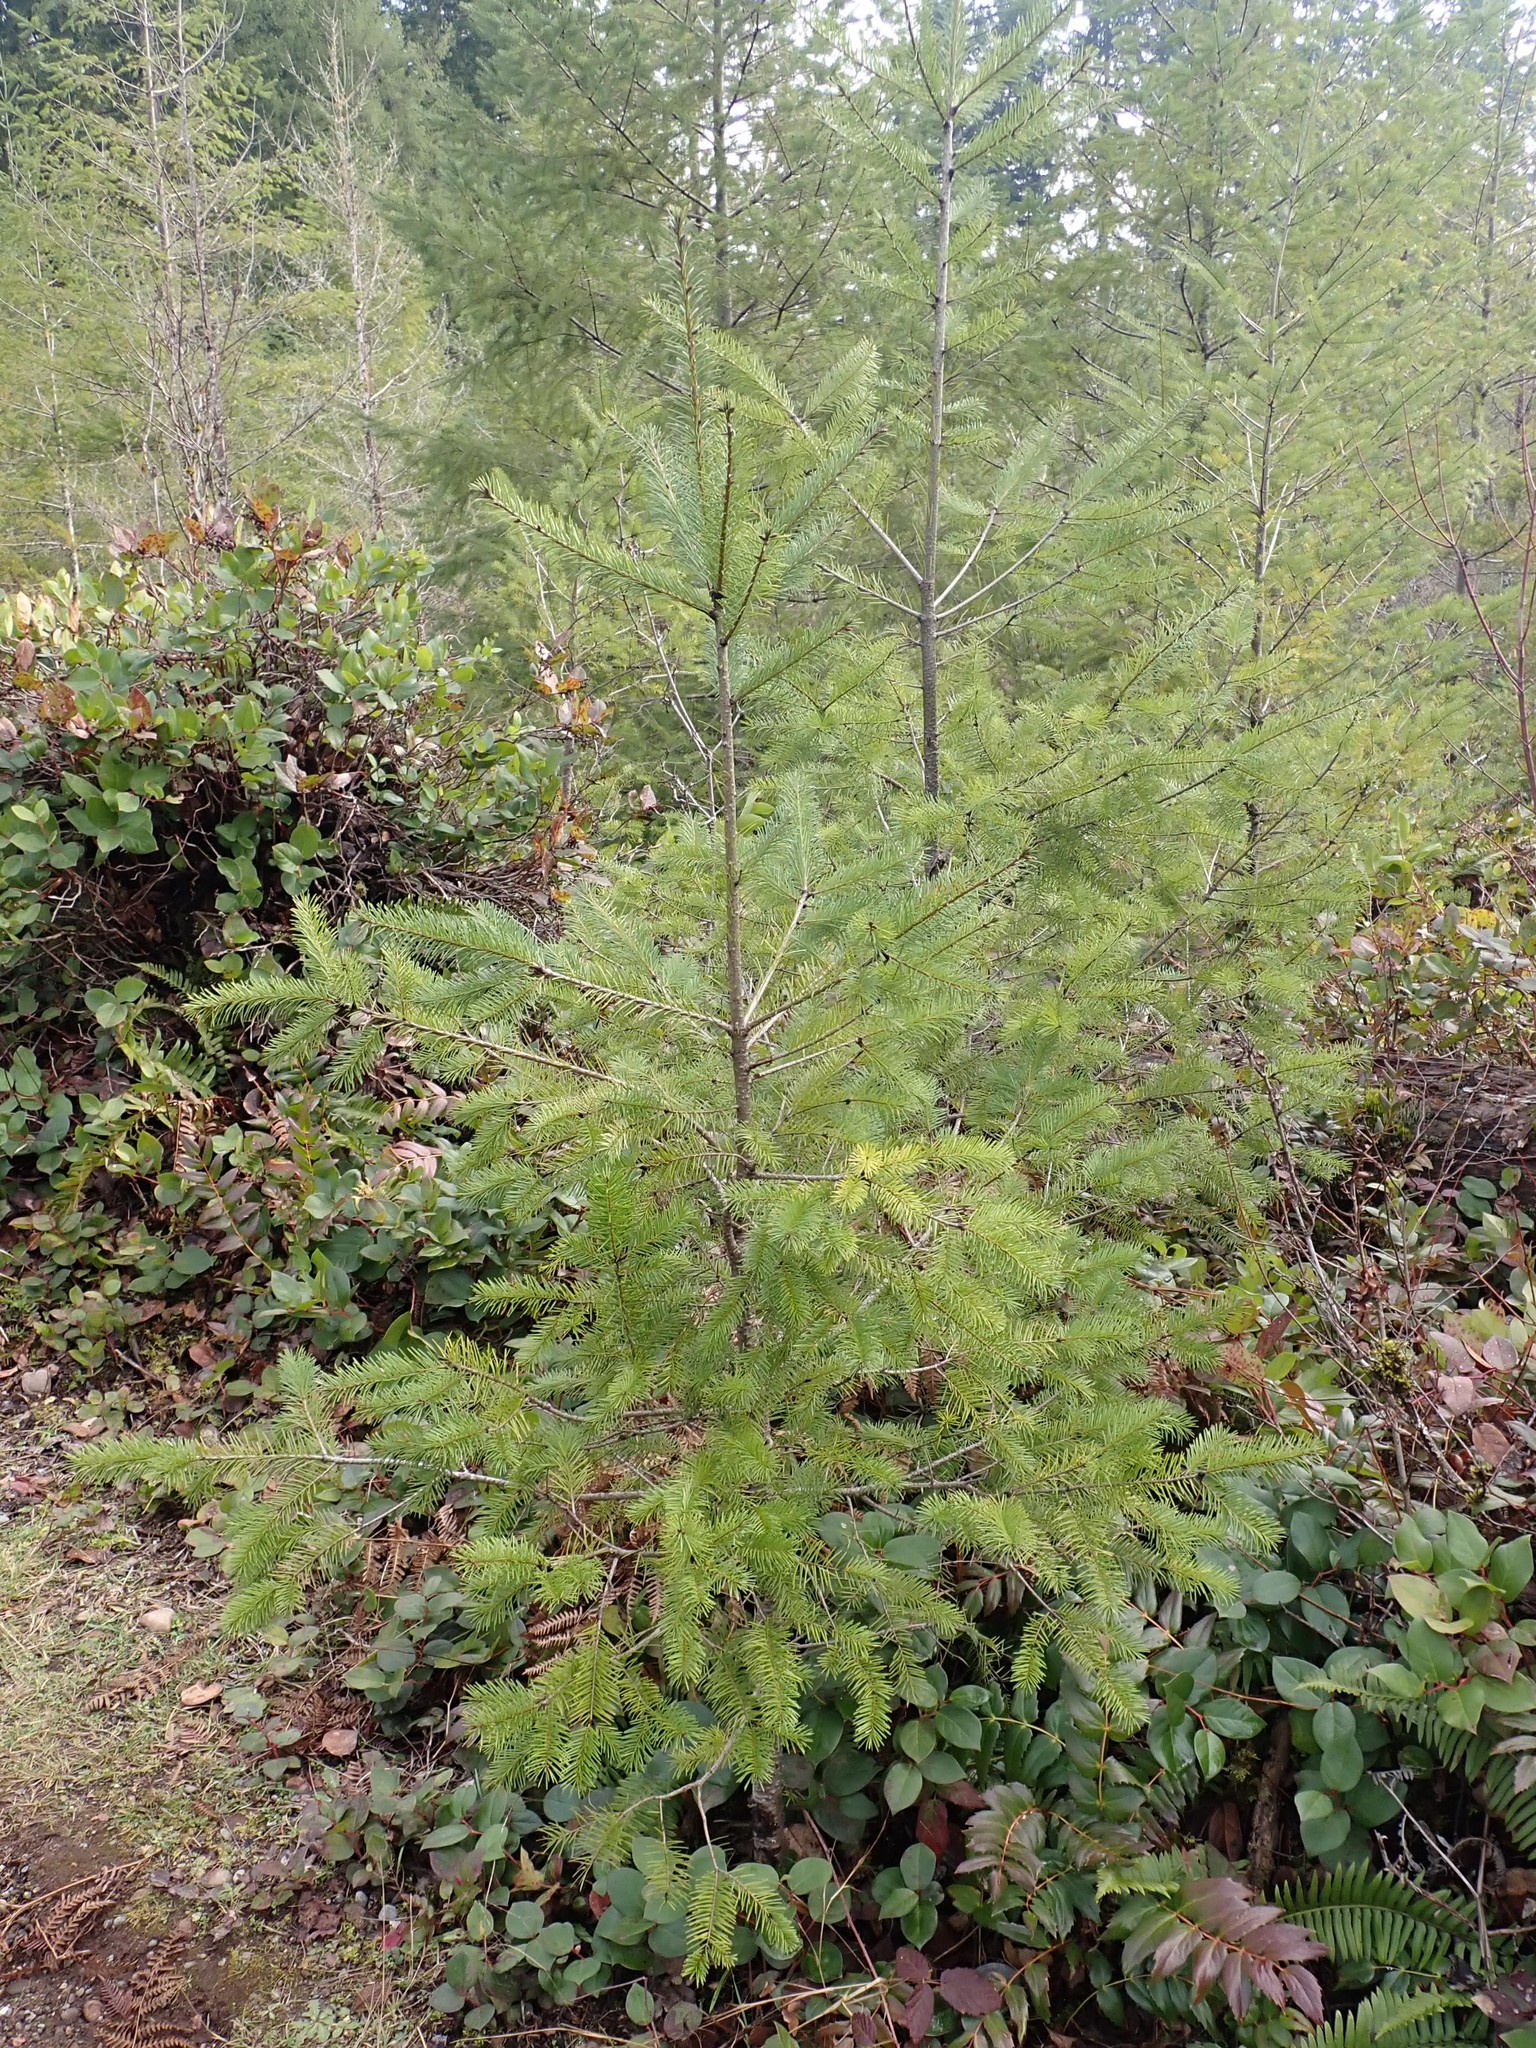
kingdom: Plantae
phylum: Tracheophyta
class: Pinopsida
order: Pinales
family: Pinaceae
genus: Pseudotsuga
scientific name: Pseudotsuga menziesii
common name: Douglas fir
